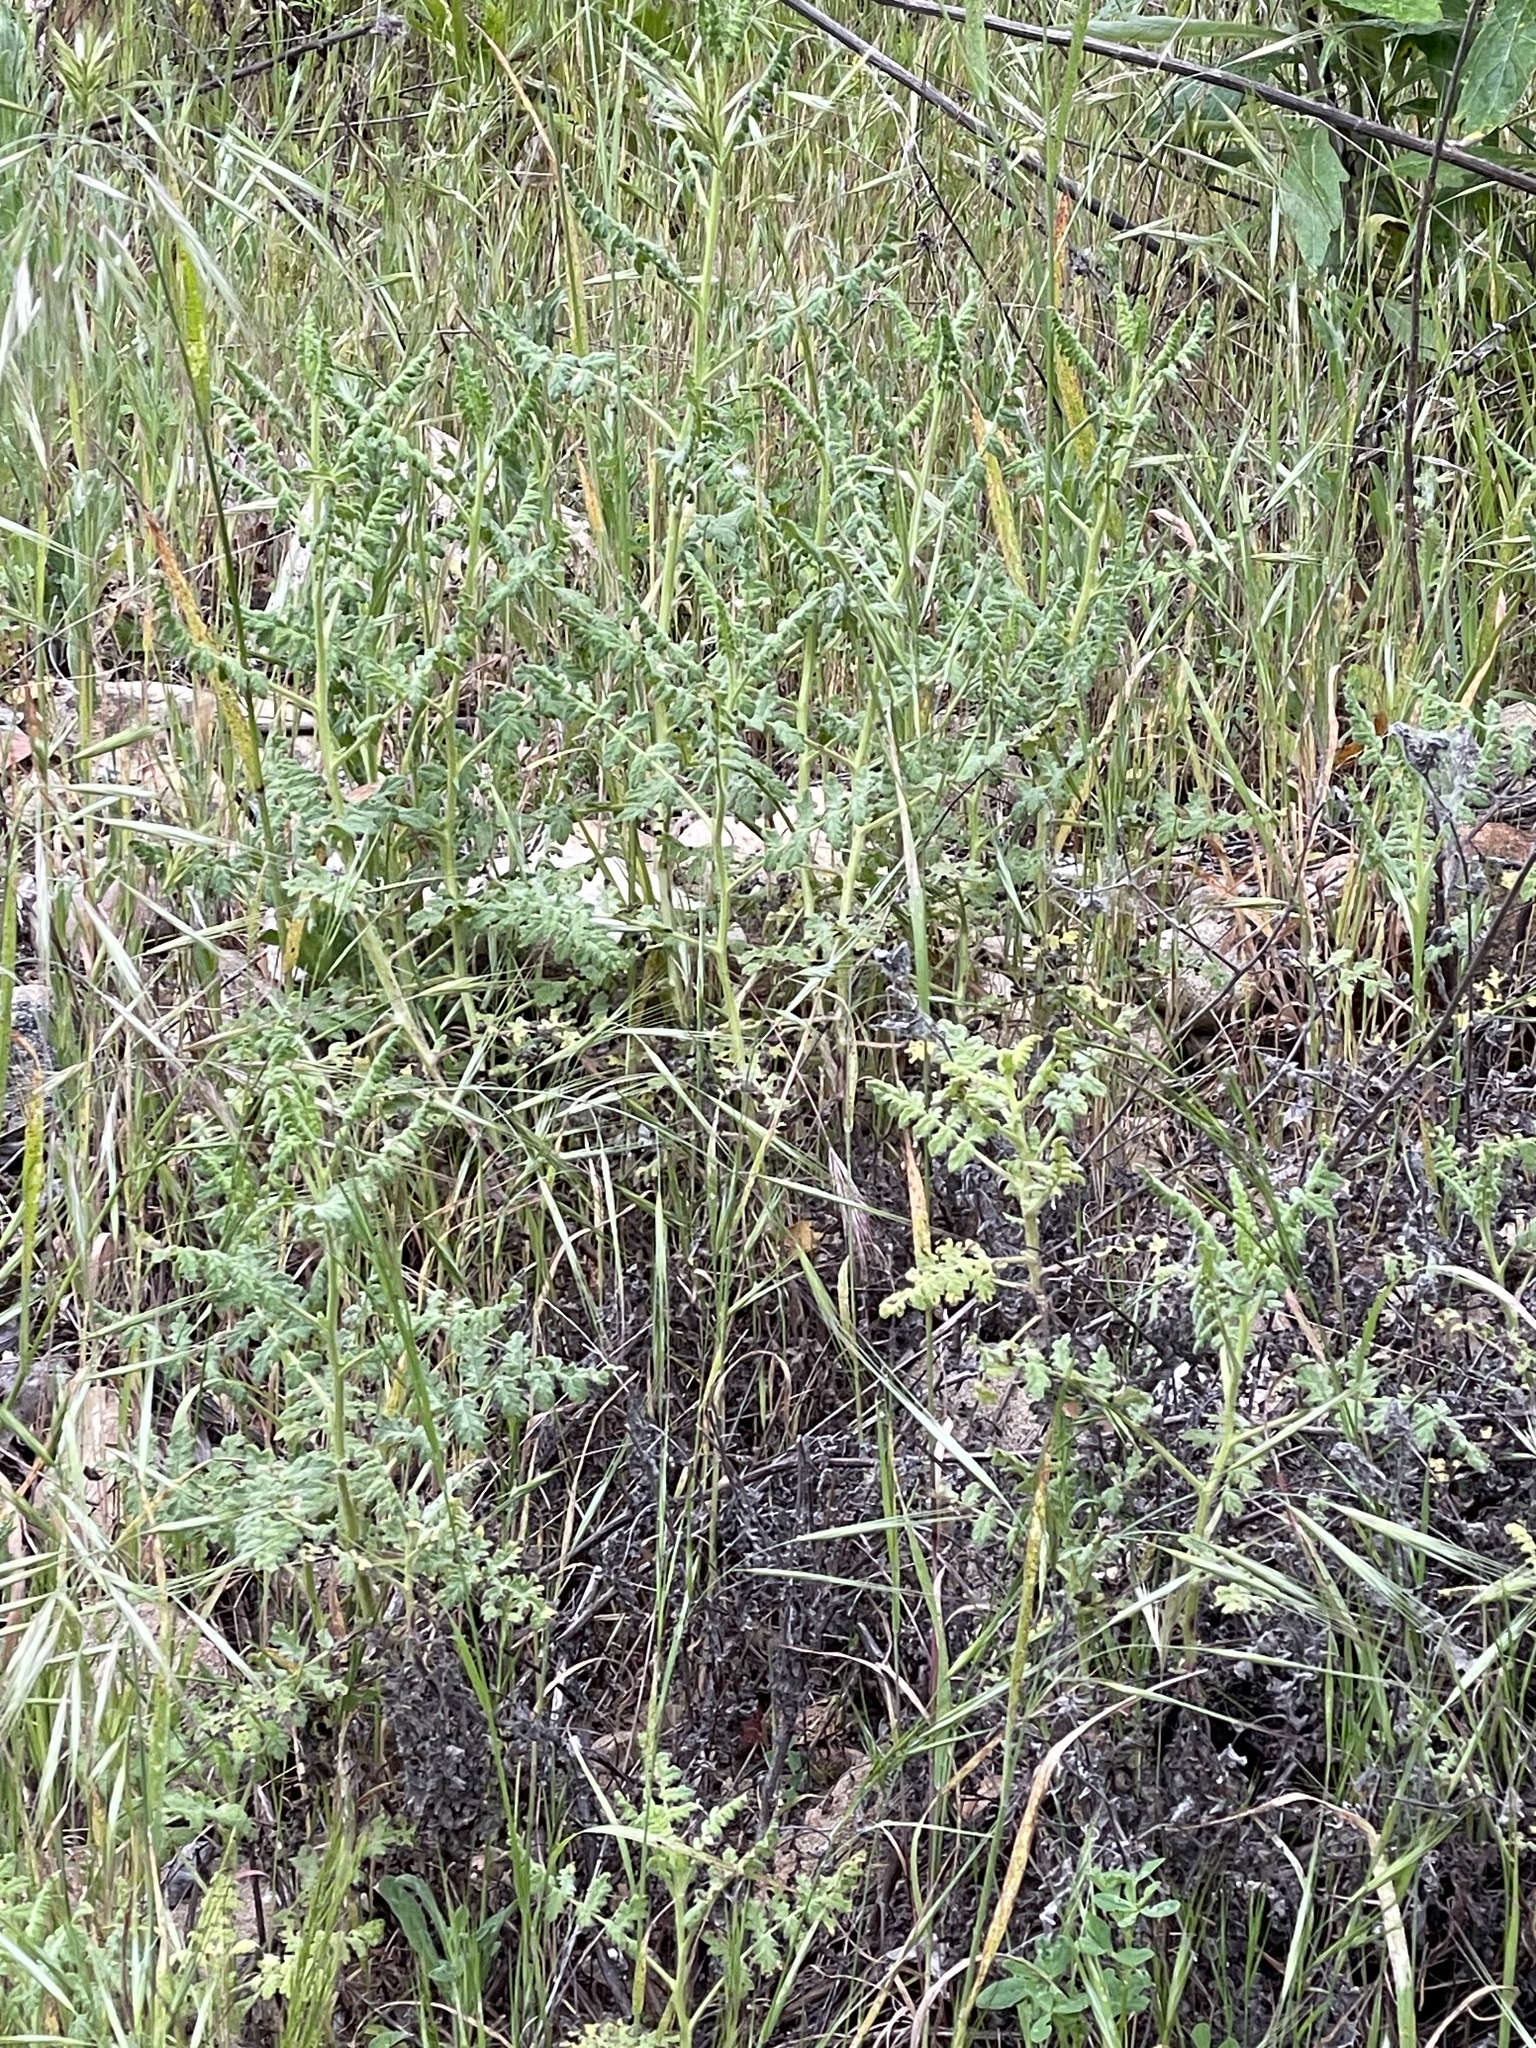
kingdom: Plantae
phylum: Tracheophyta
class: Magnoliopsida
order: Boraginales
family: Hydrophyllaceae
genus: Phacelia
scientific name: Phacelia ramosissima
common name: Branching phacelia
